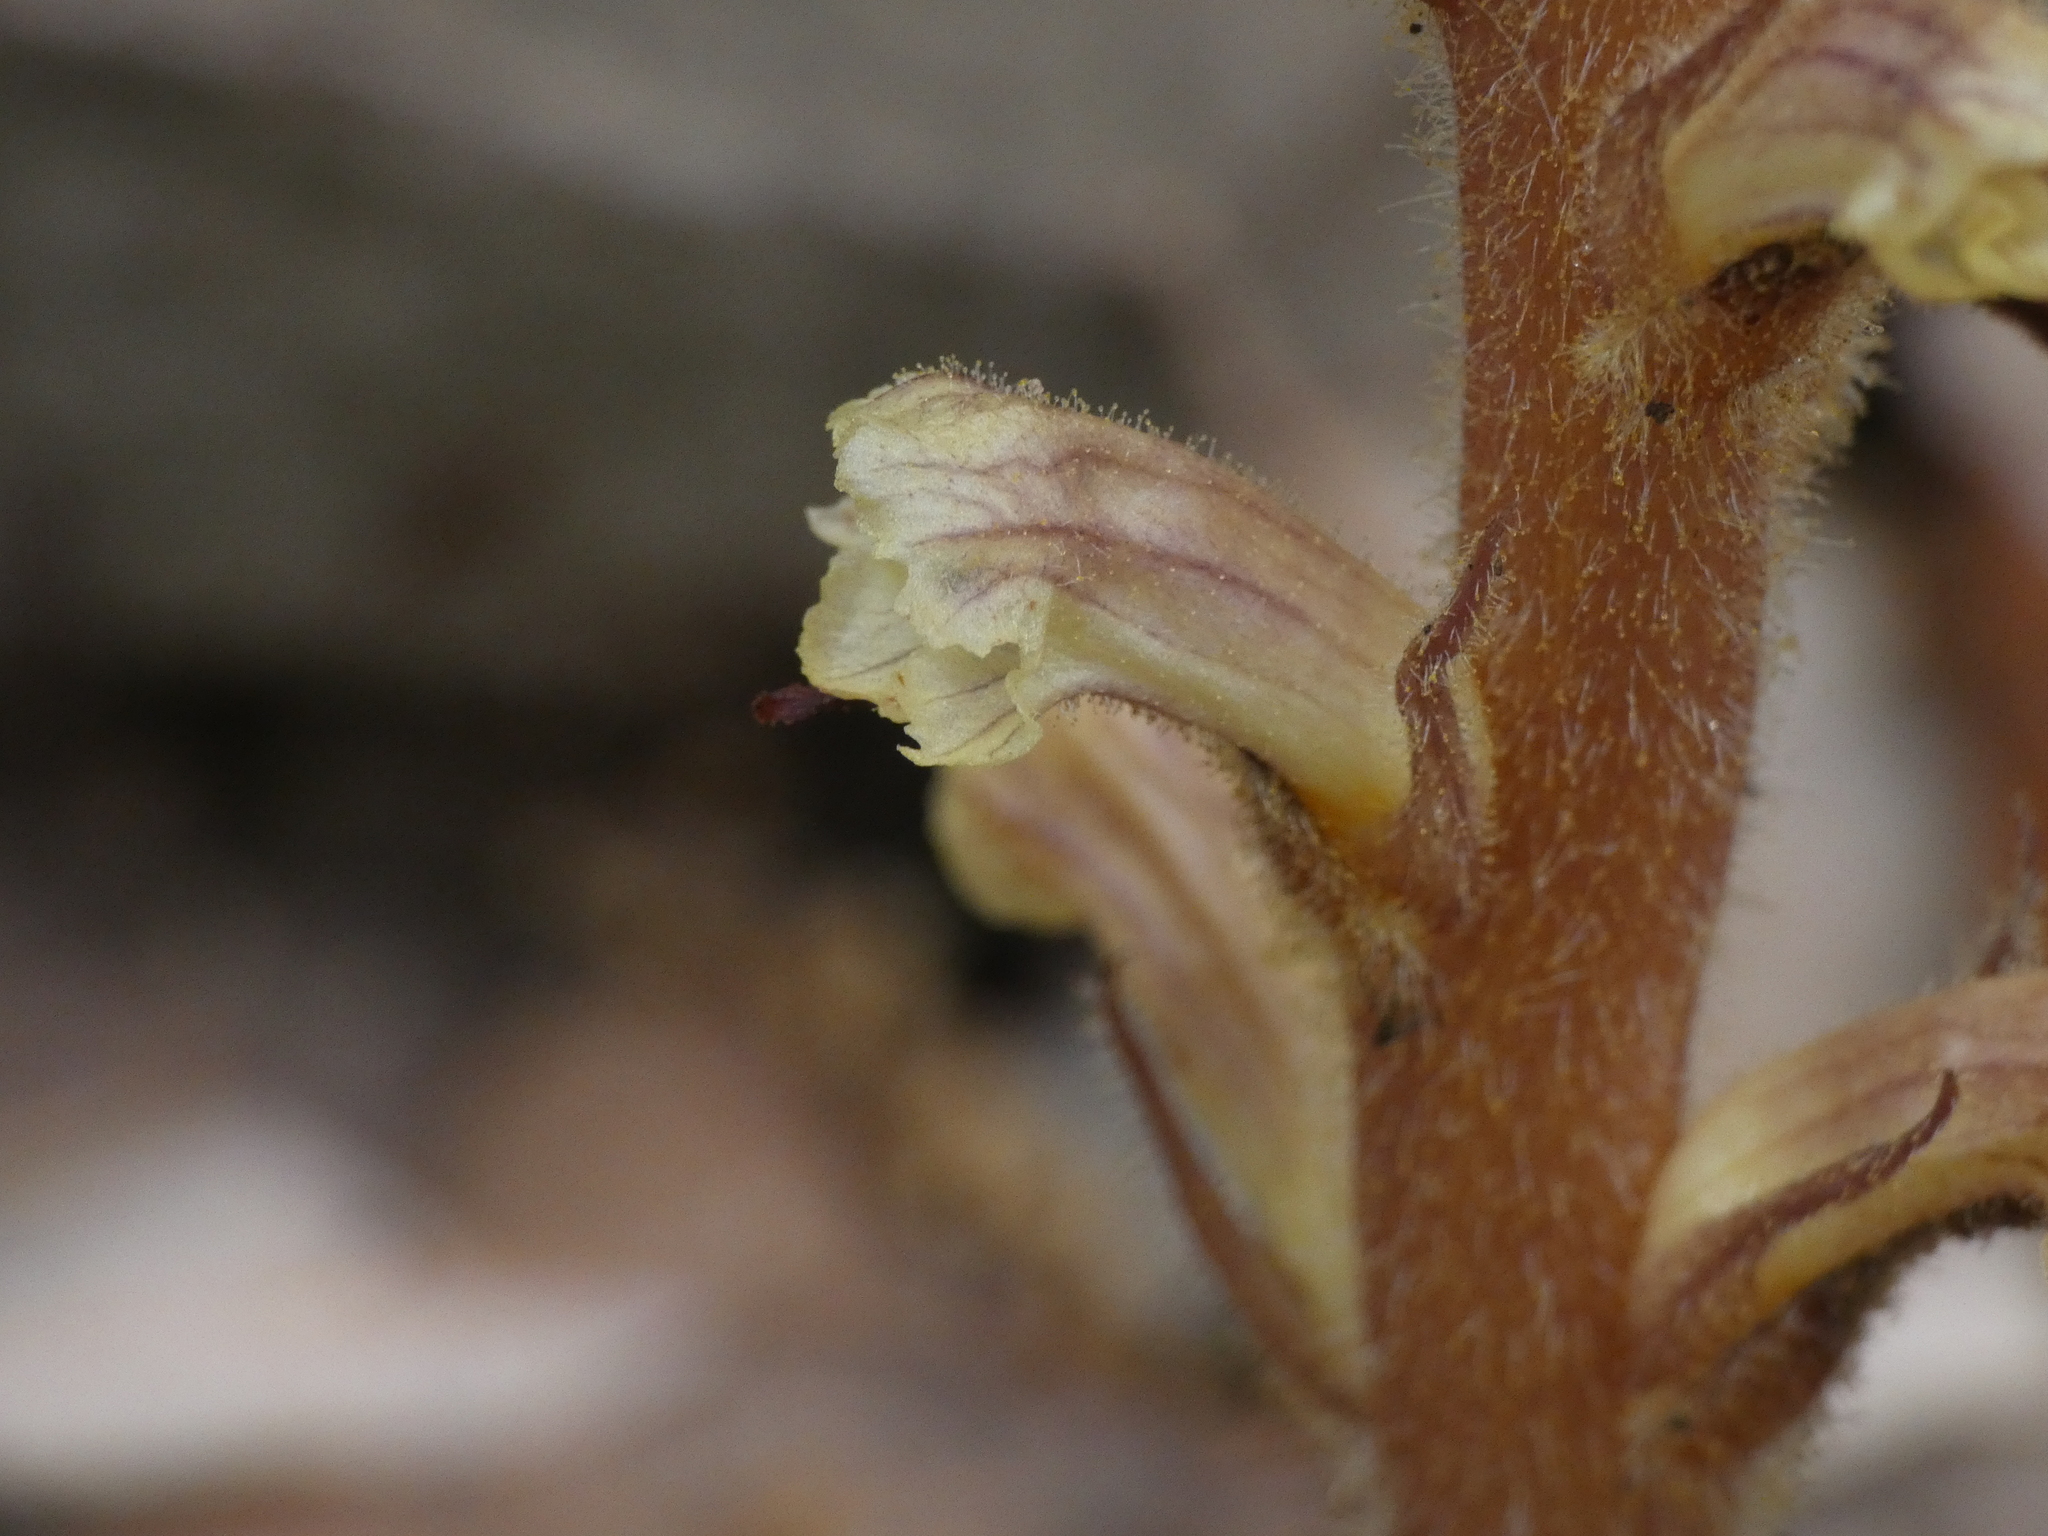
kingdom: Plantae
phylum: Tracheophyta
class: Magnoliopsida
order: Lamiales
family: Orobanchaceae
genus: Orobanche
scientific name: Orobanche hederae
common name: Ivy broomrape
